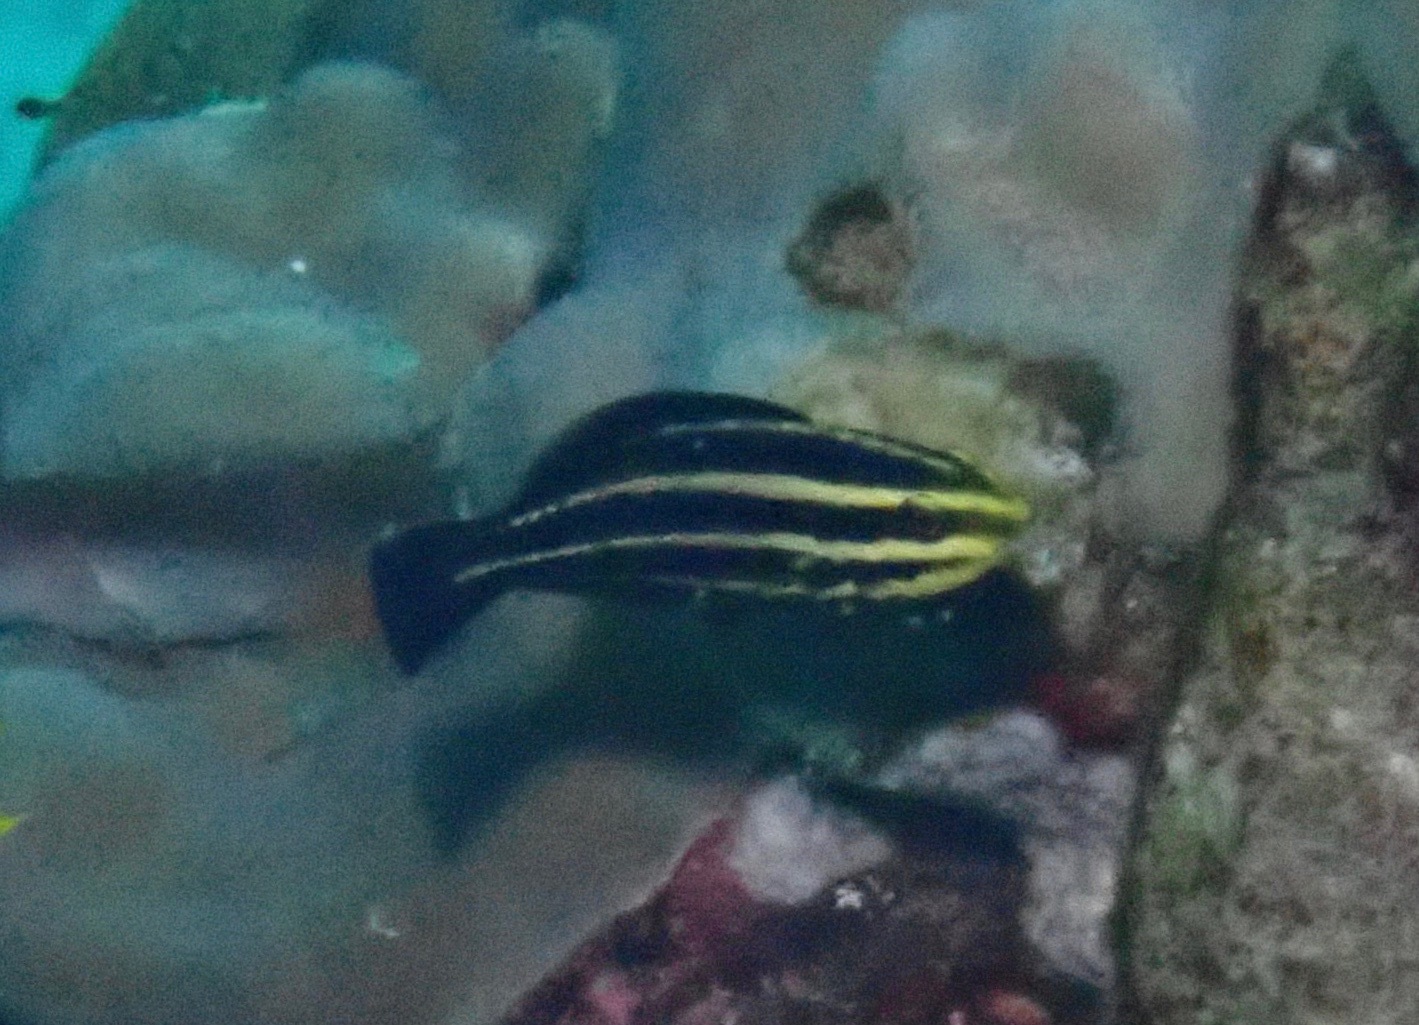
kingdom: Animalia
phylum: Chordata
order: Perciformes
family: Scaridae
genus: Chlorurus
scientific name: Chlorurus strongylocephalus
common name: Steephead parrotfish
